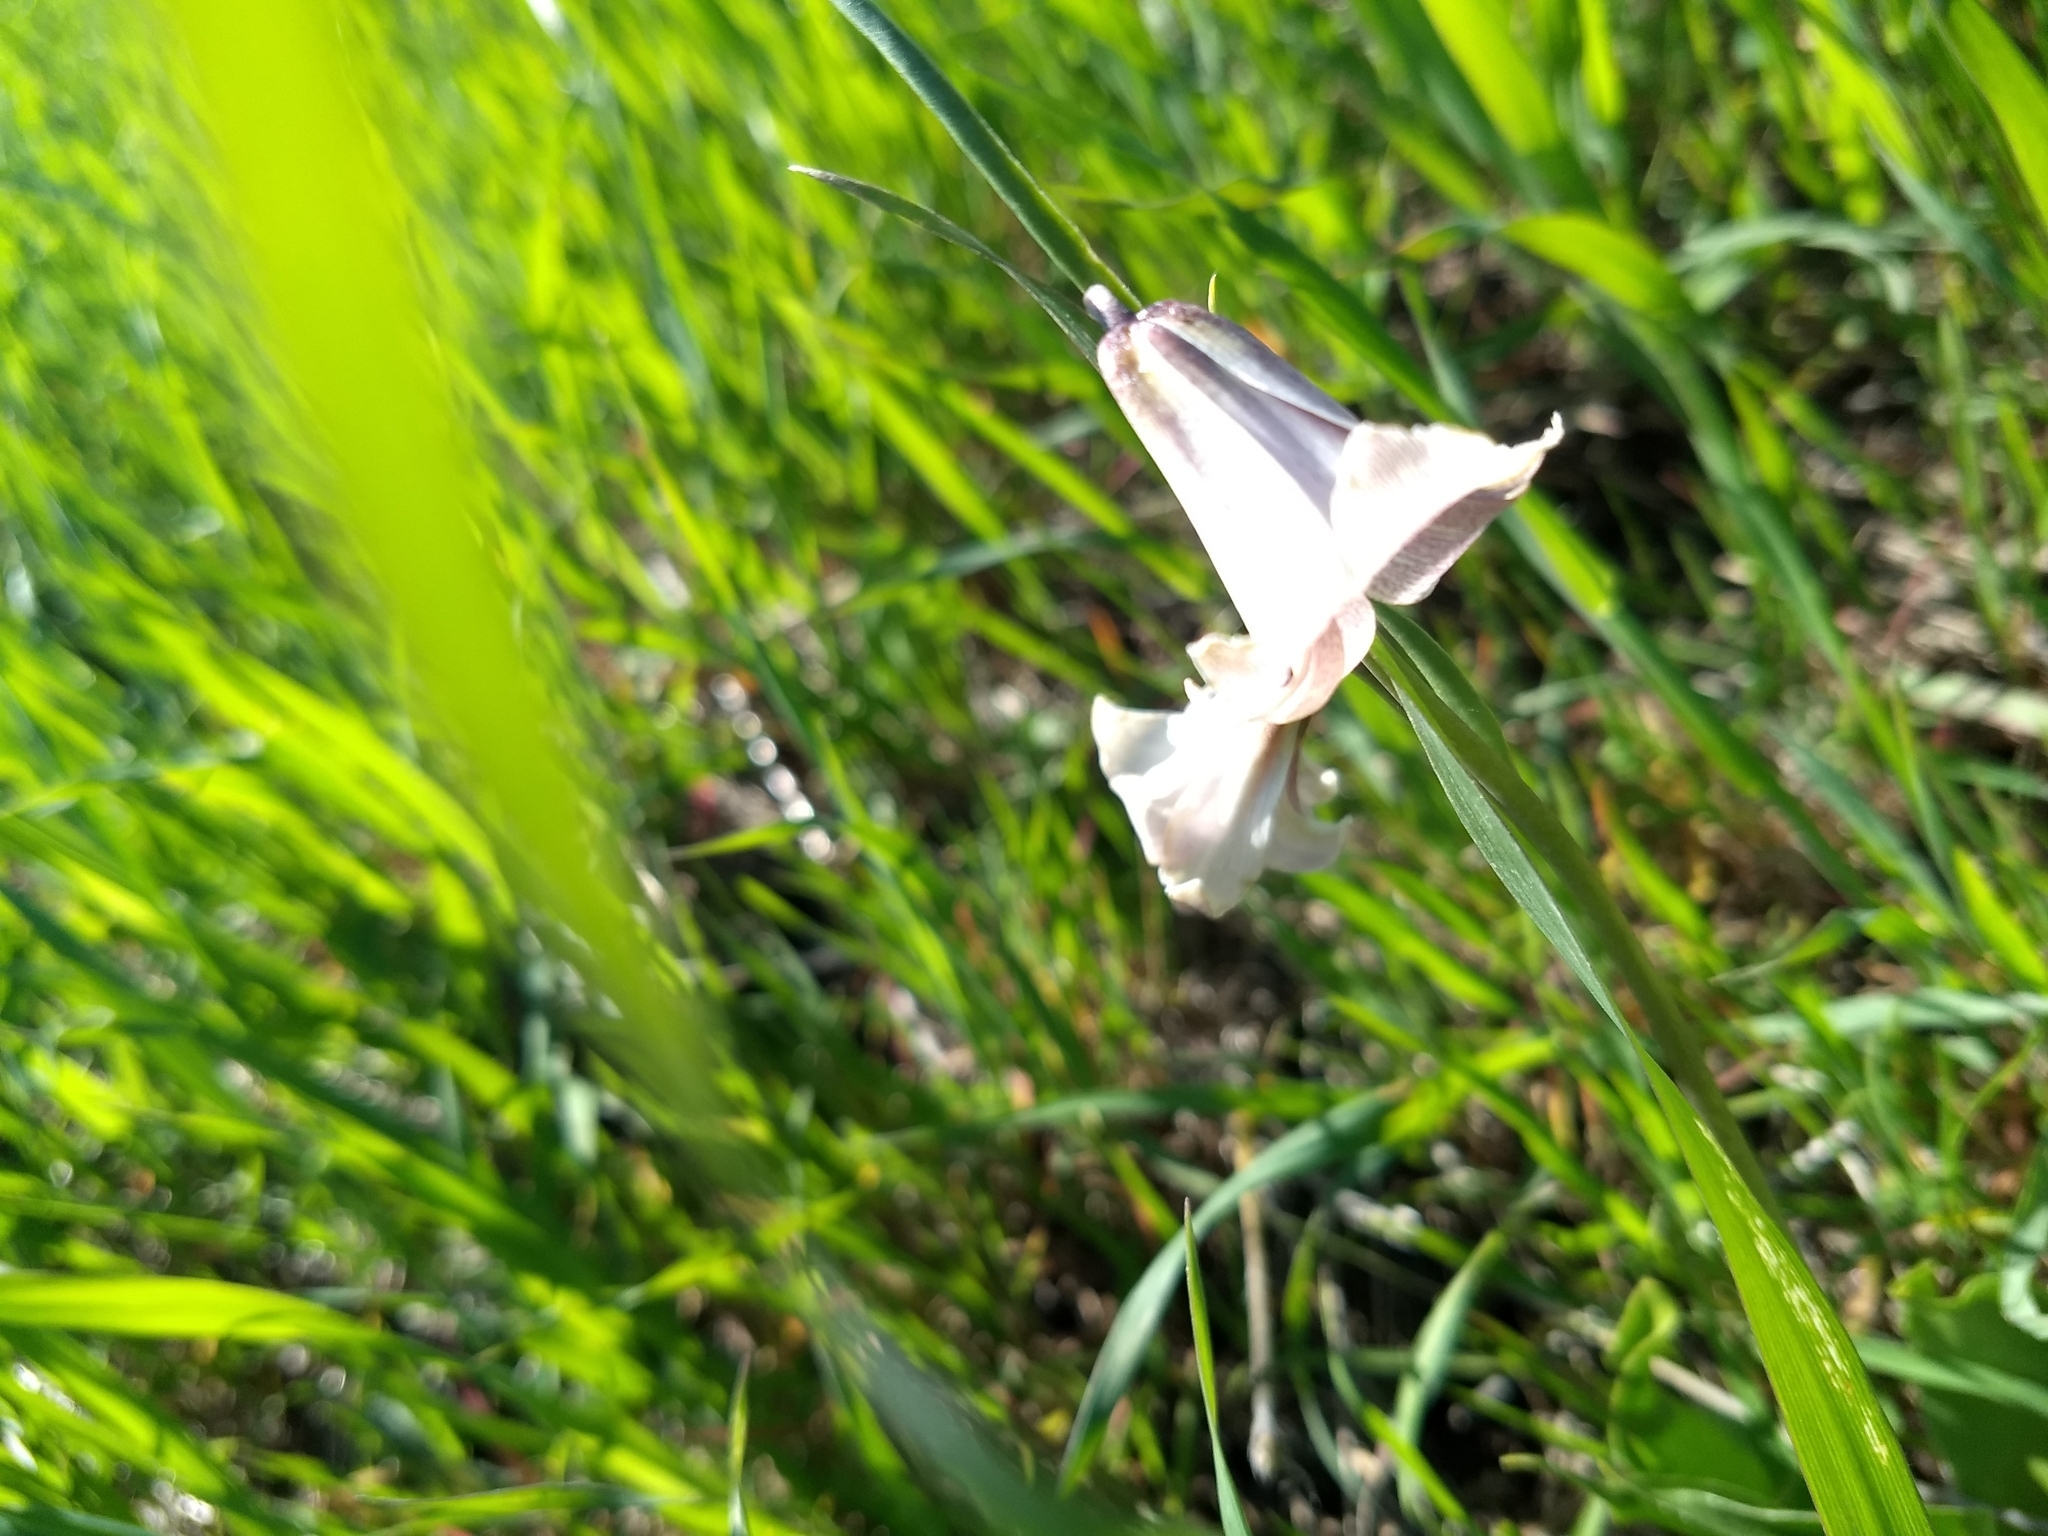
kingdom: Plantae
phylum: Tracheophyta
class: Liliopsida
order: Liliales
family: Liliaceae
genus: Fritillaria
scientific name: Fritillaria striata
